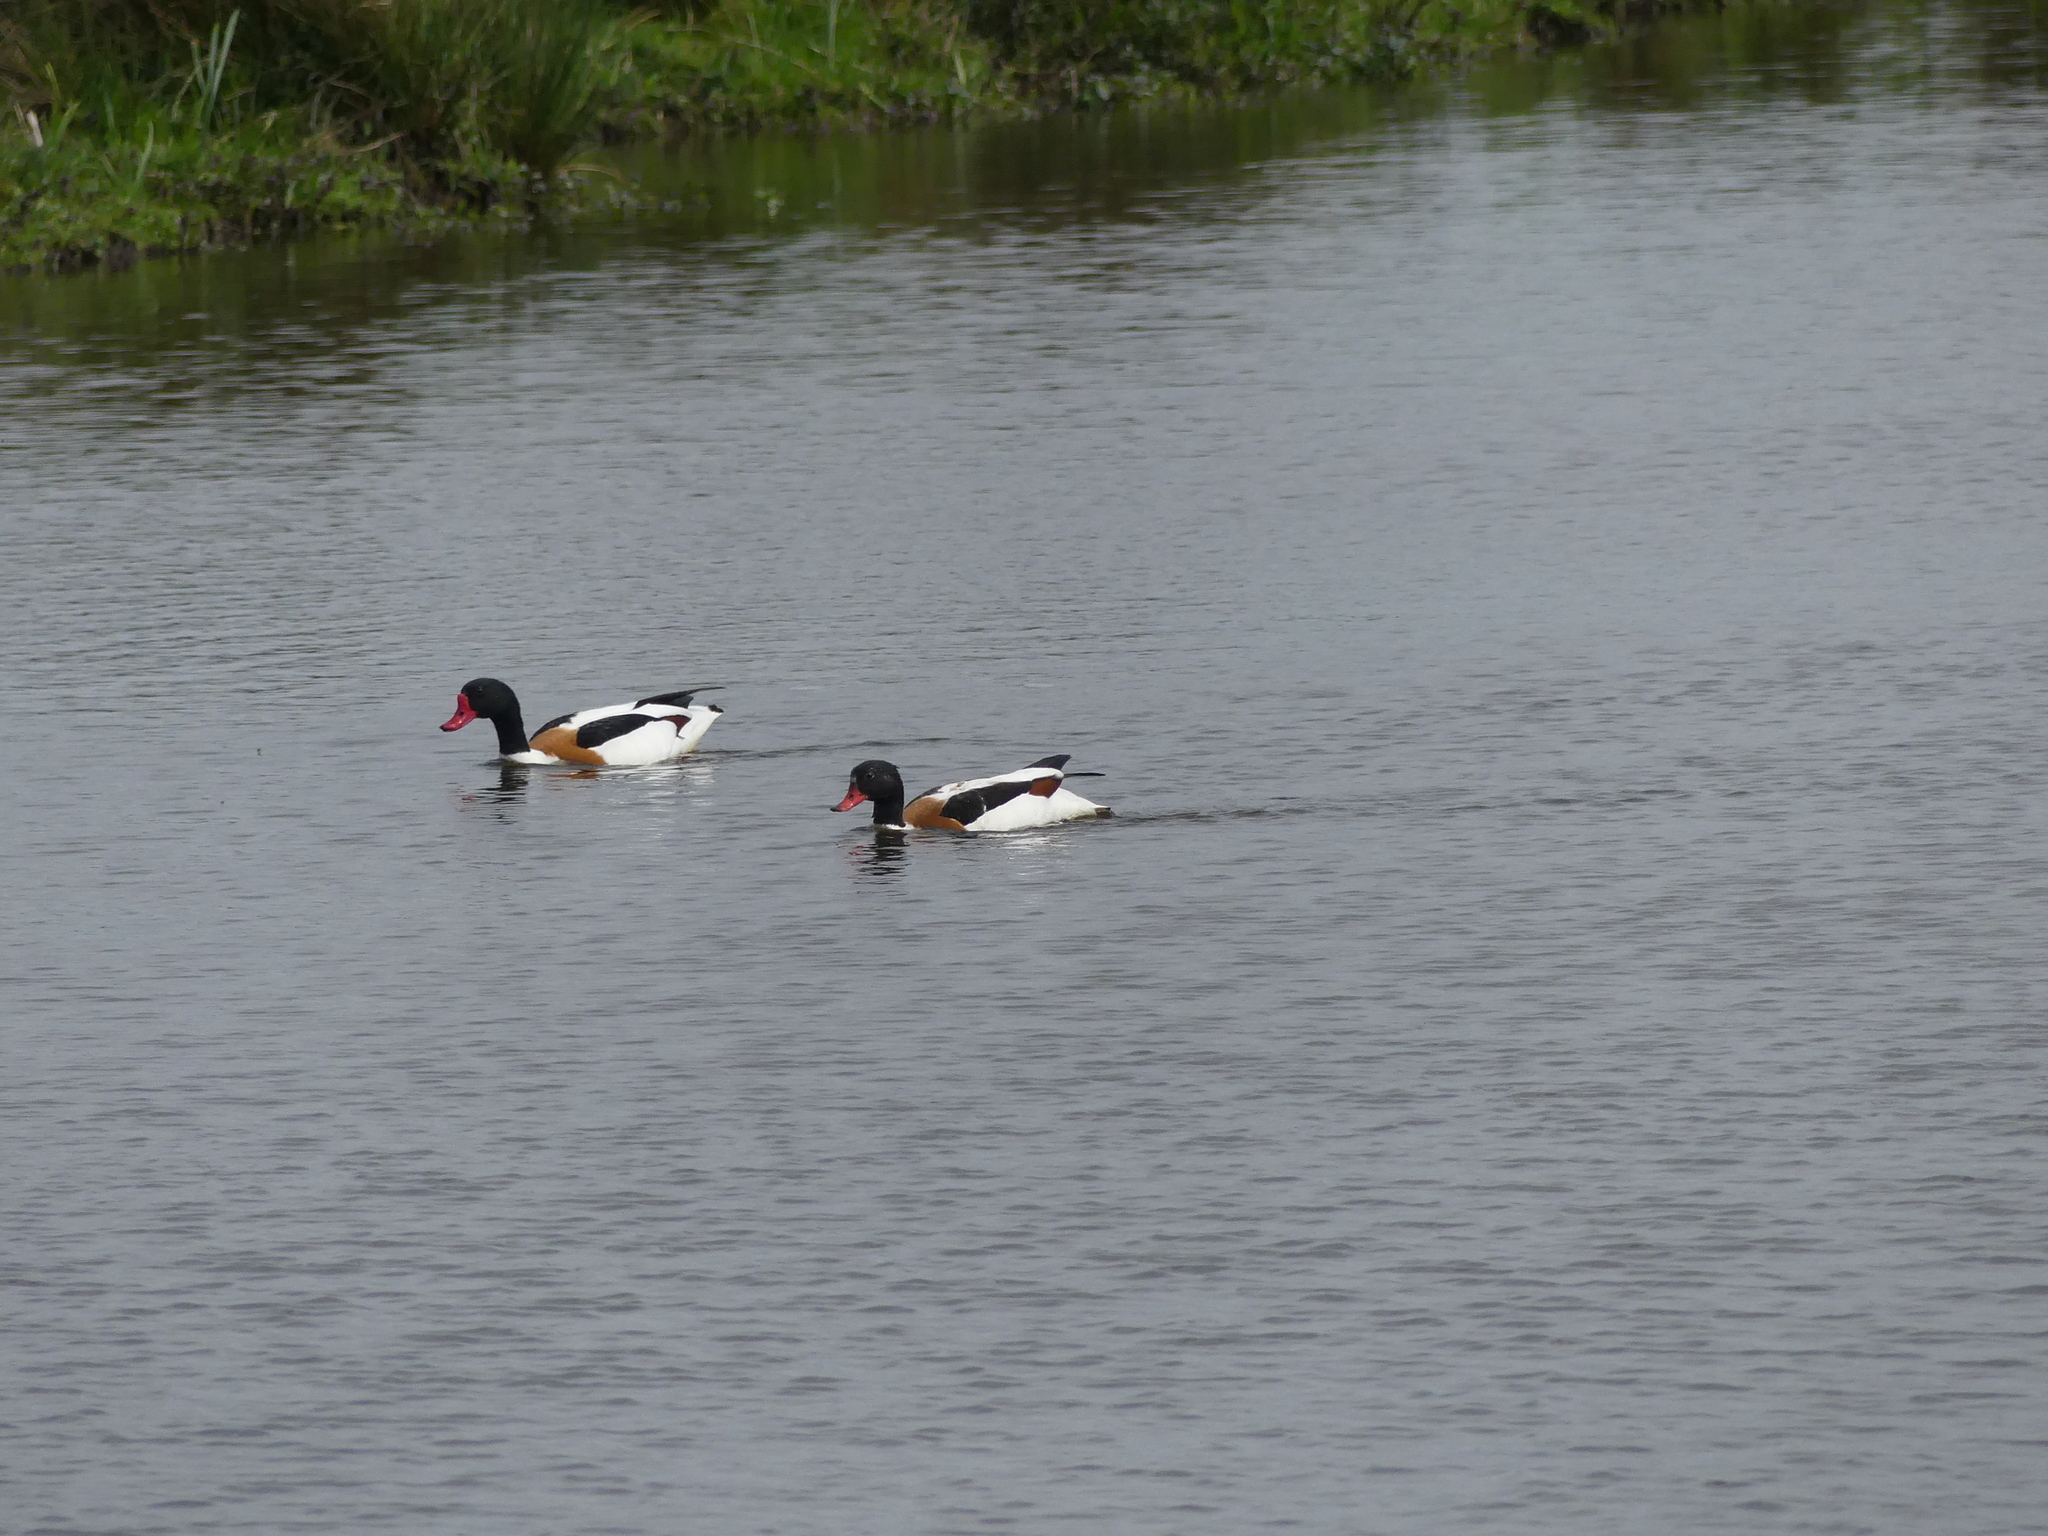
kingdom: Animalia
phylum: Chordata
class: Aves
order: Anseriformes
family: Anatidae
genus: Tadorna
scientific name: Tadorna tadorna
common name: Common shelduck
